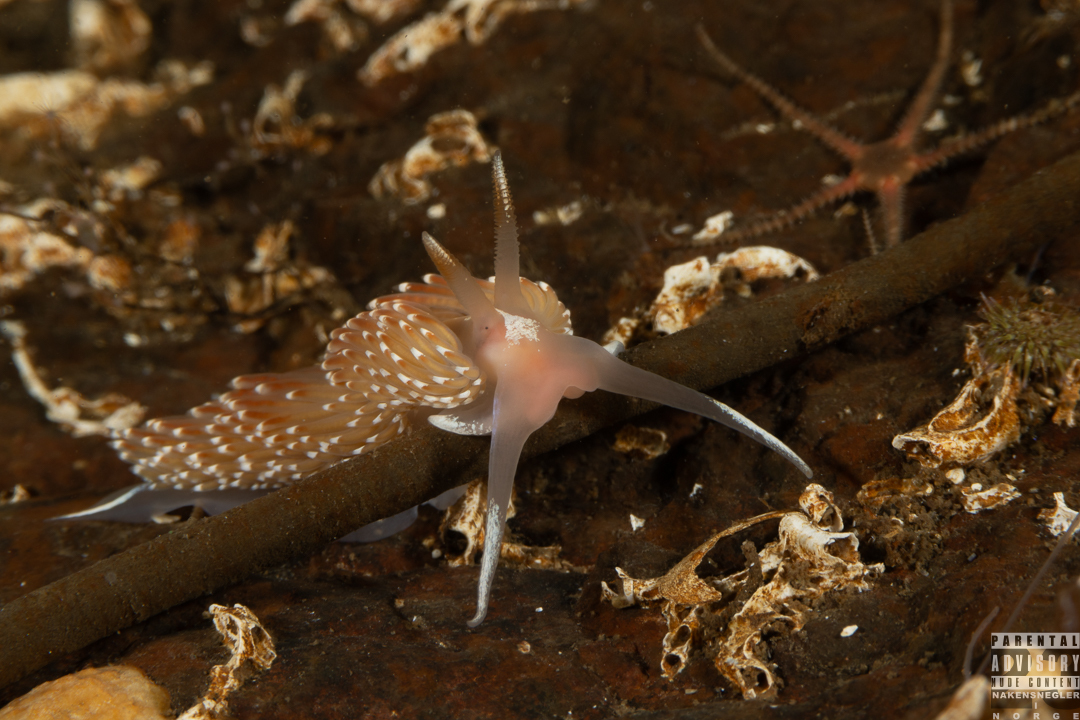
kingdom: Animalia
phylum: Mollusca
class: Gastropoda
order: Nudibranchia
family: Facelinidae
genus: Facelina
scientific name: Facelina bostoniensis
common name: Boston facelina
